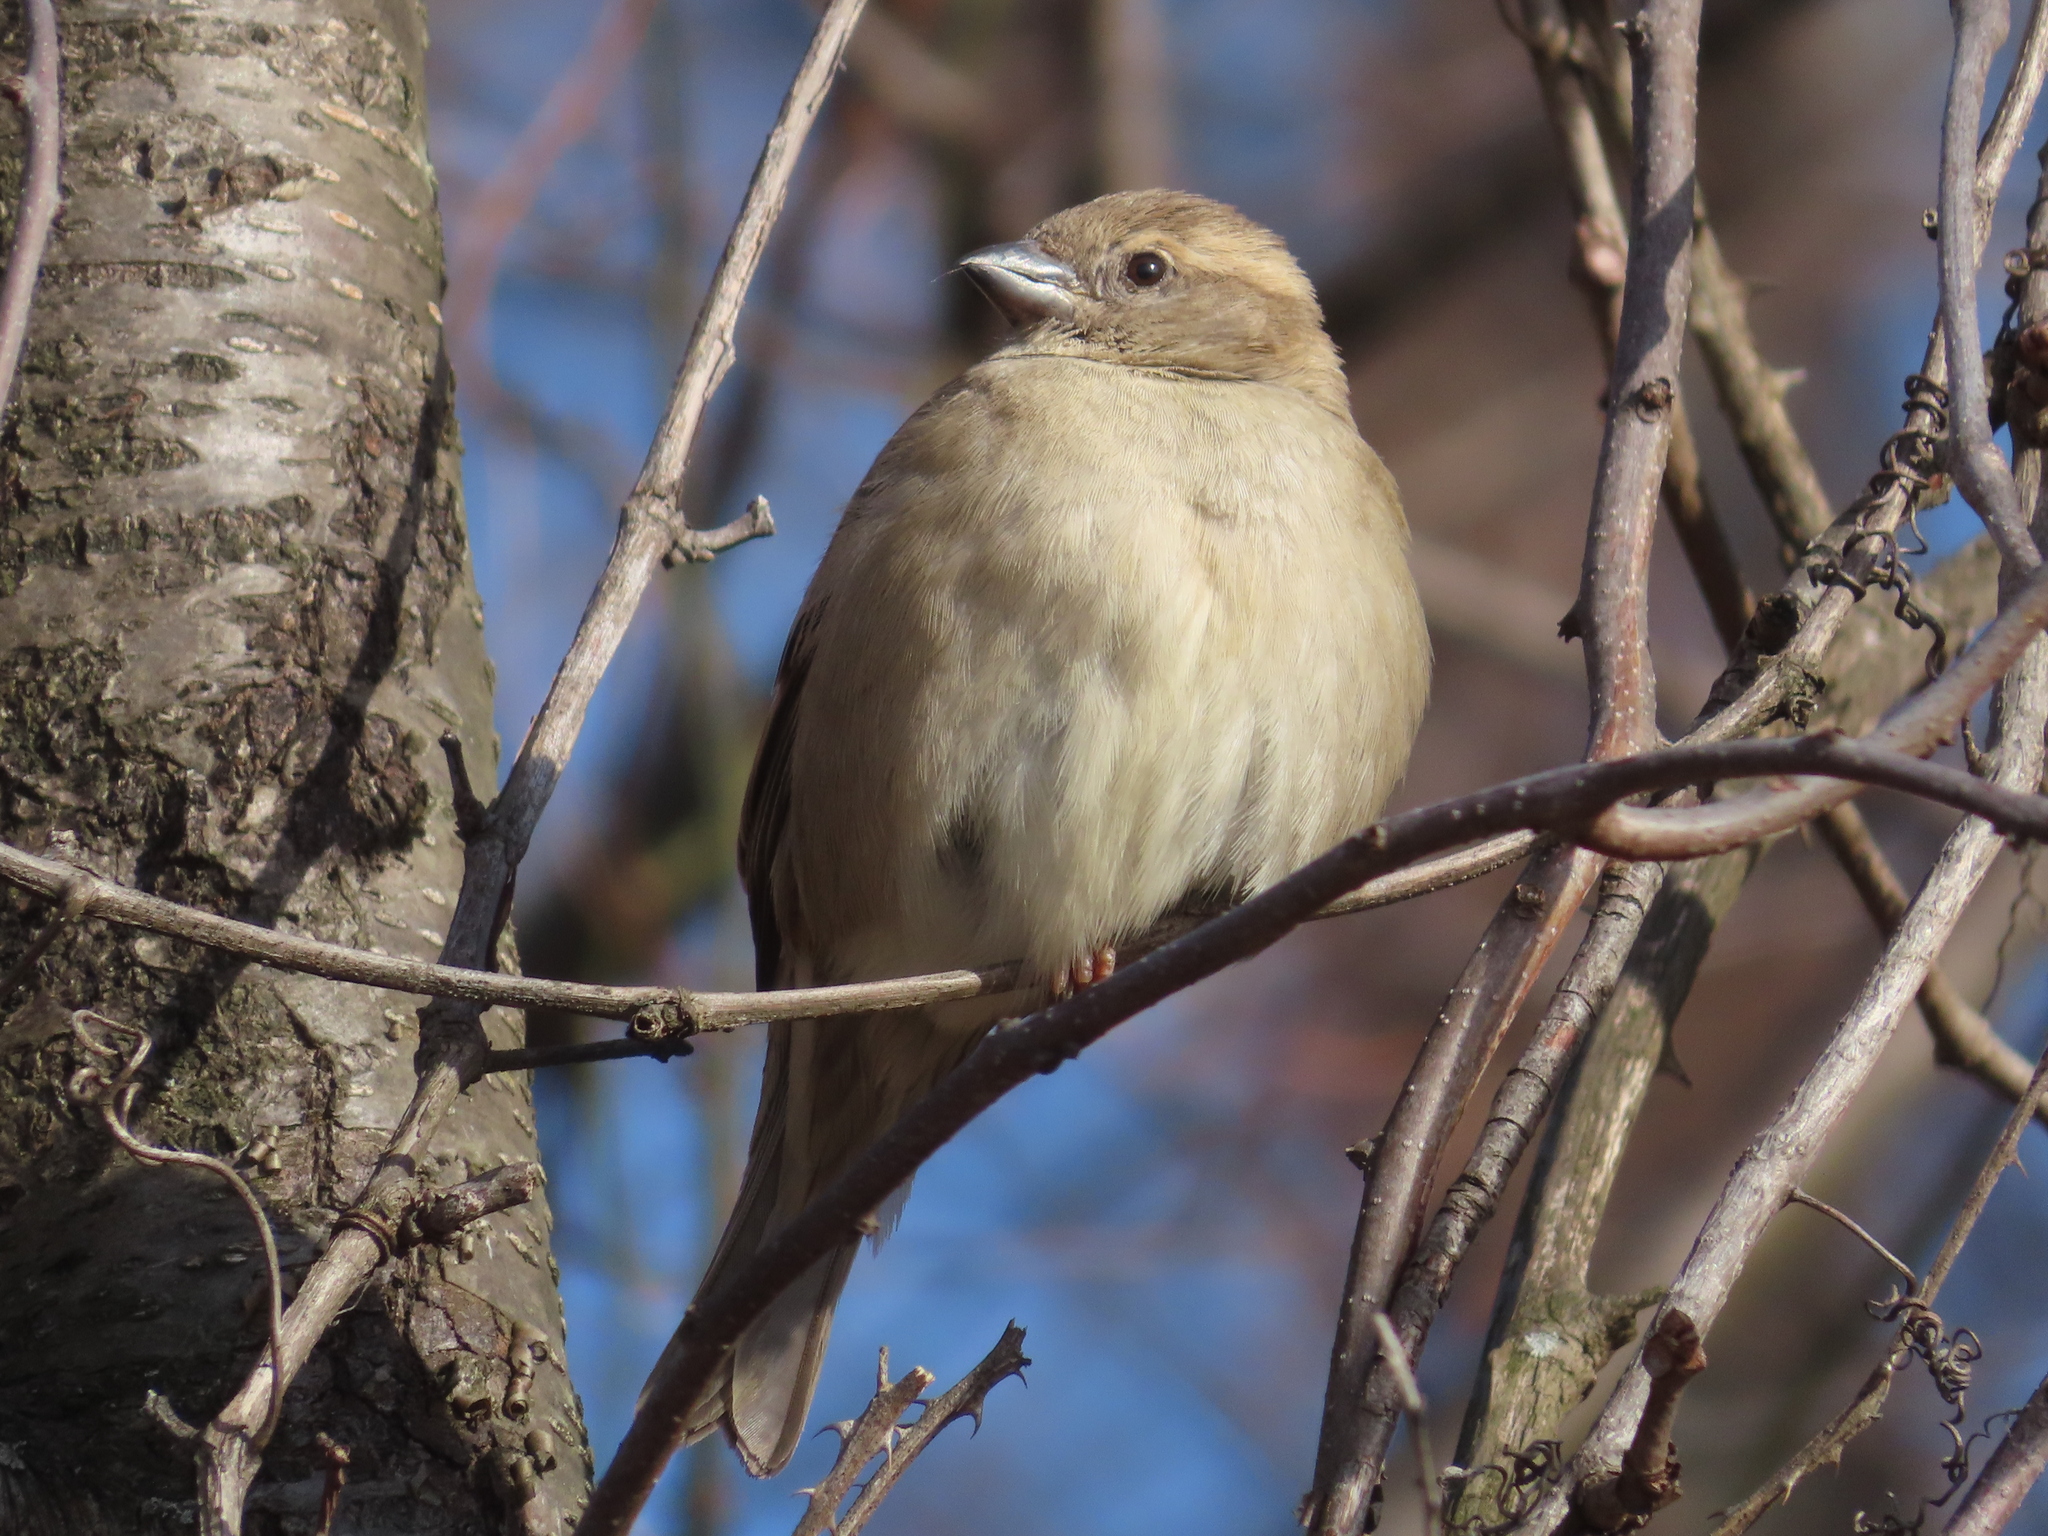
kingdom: Animalia
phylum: Chordata
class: Aves
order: Passeriformes
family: Passeridae
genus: Passer
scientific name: Passer domesticus
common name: House sparrow
